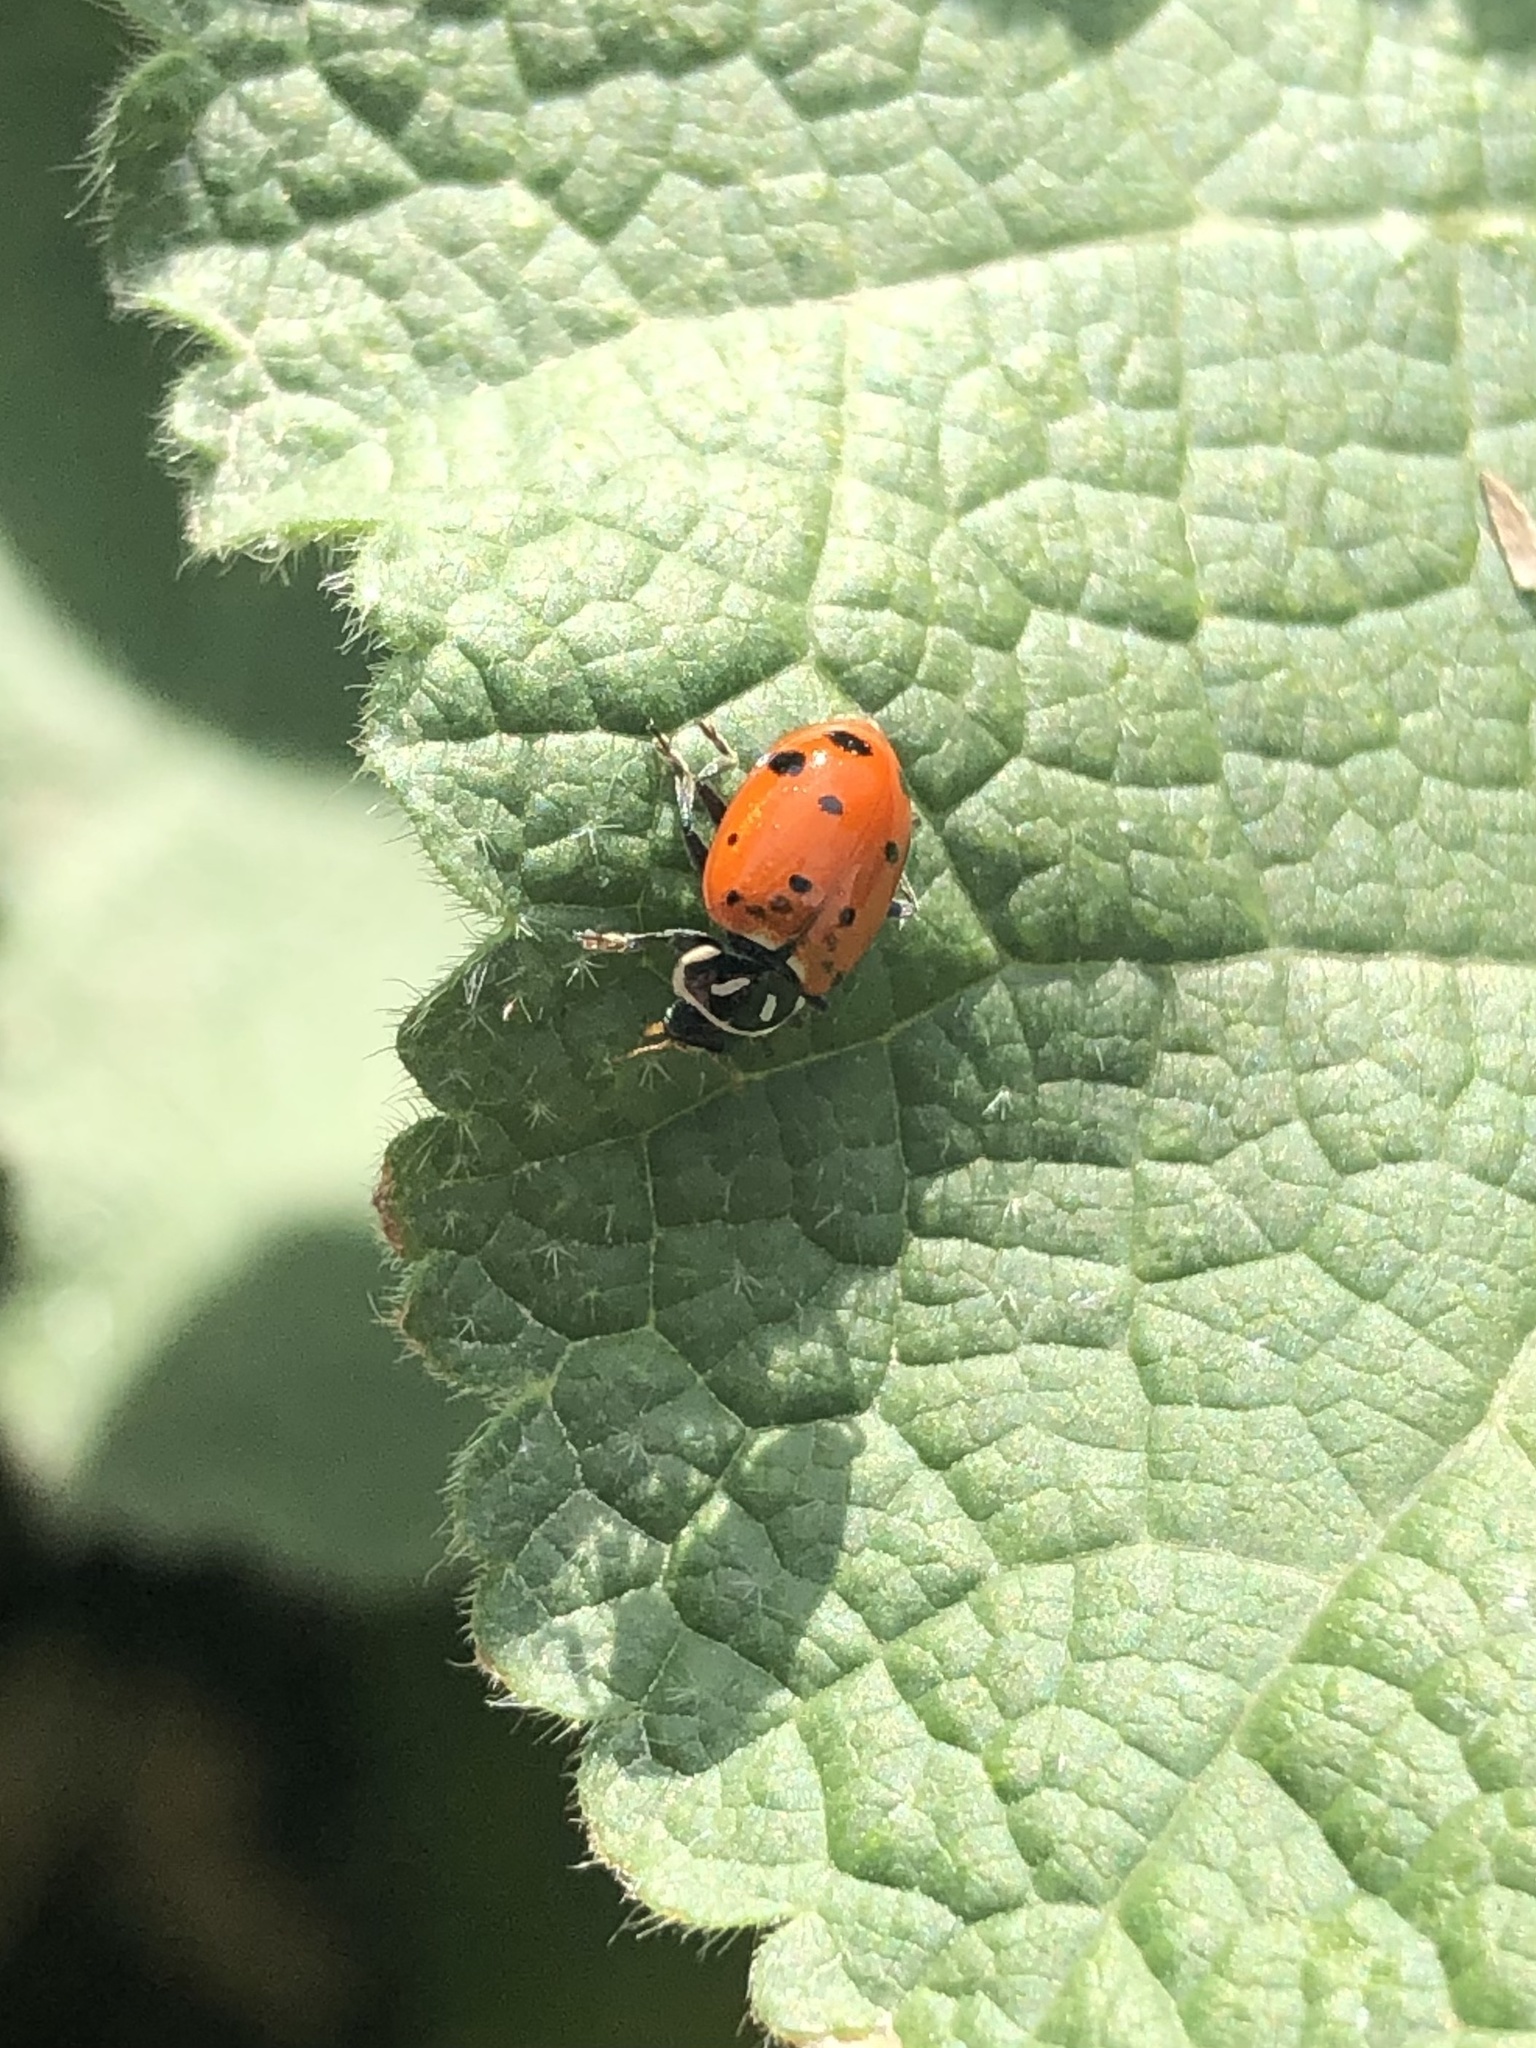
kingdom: Animalia
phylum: Arthropoda
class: Insecta
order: Coleoptera
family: Coccinellidae
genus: Hippodamia
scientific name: Hippodamia convergens
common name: Convergent lady beetle
